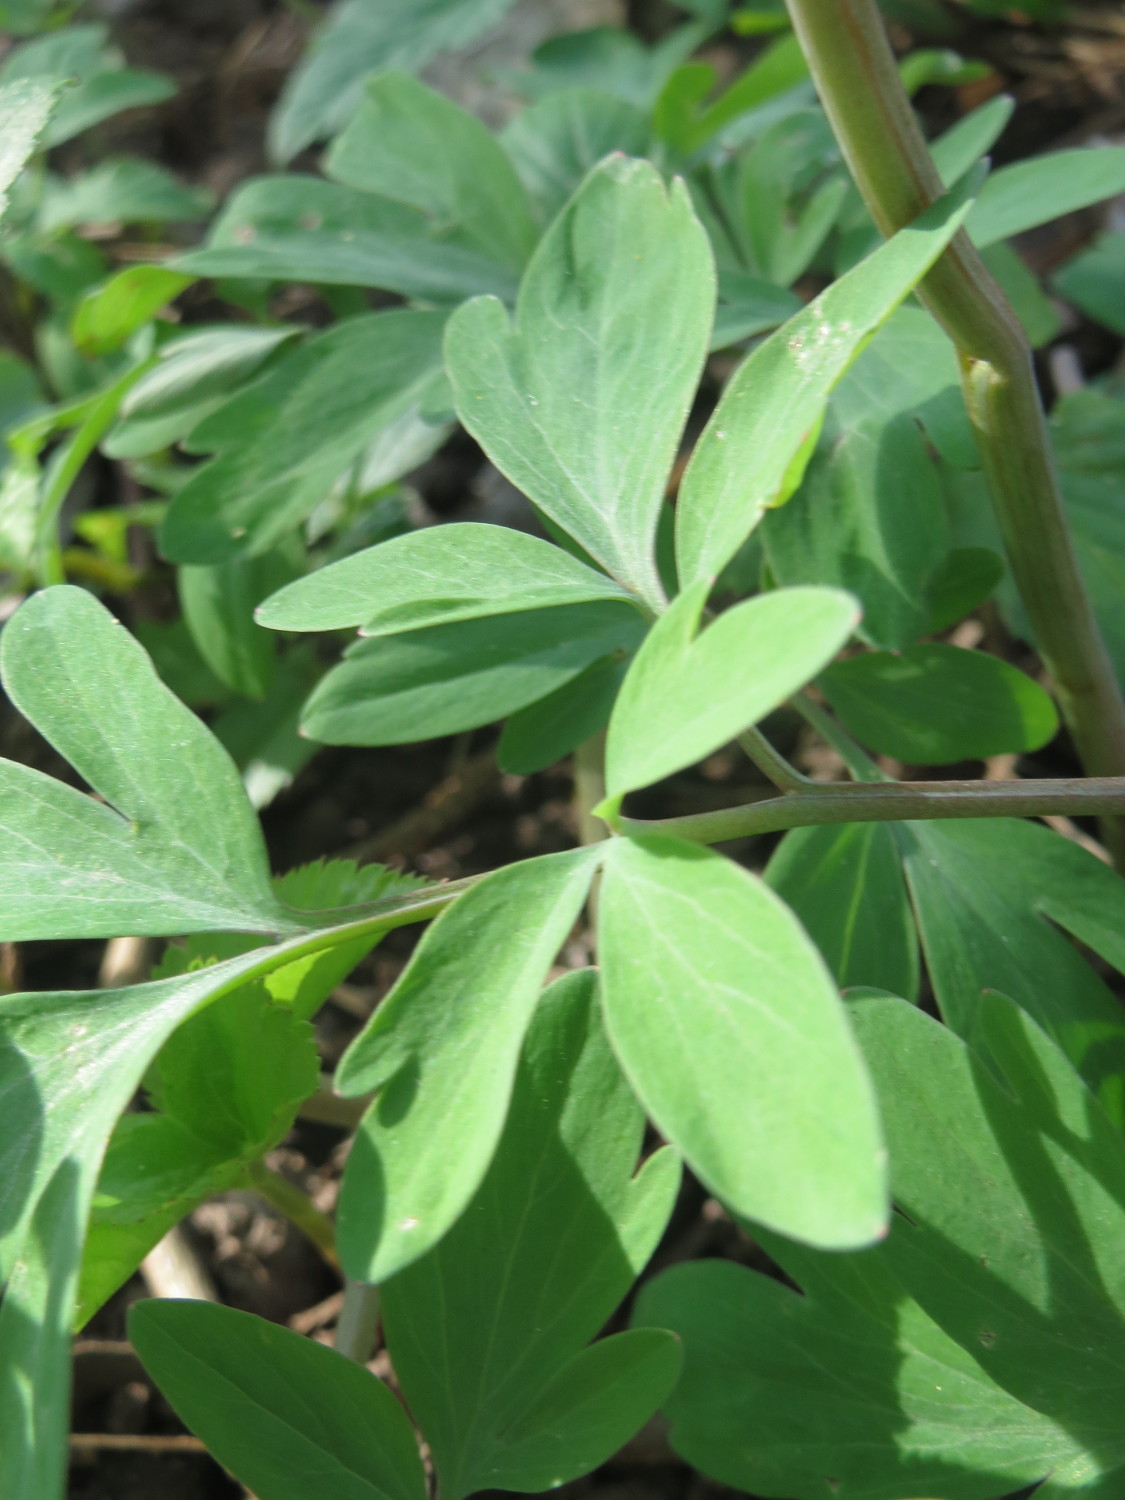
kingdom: Plantae
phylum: Tracheophyta
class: Magnoliopsida
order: Ranunculales
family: Papaveraceae
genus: Corydalis
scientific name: Corydalis cava
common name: Hollowroot
